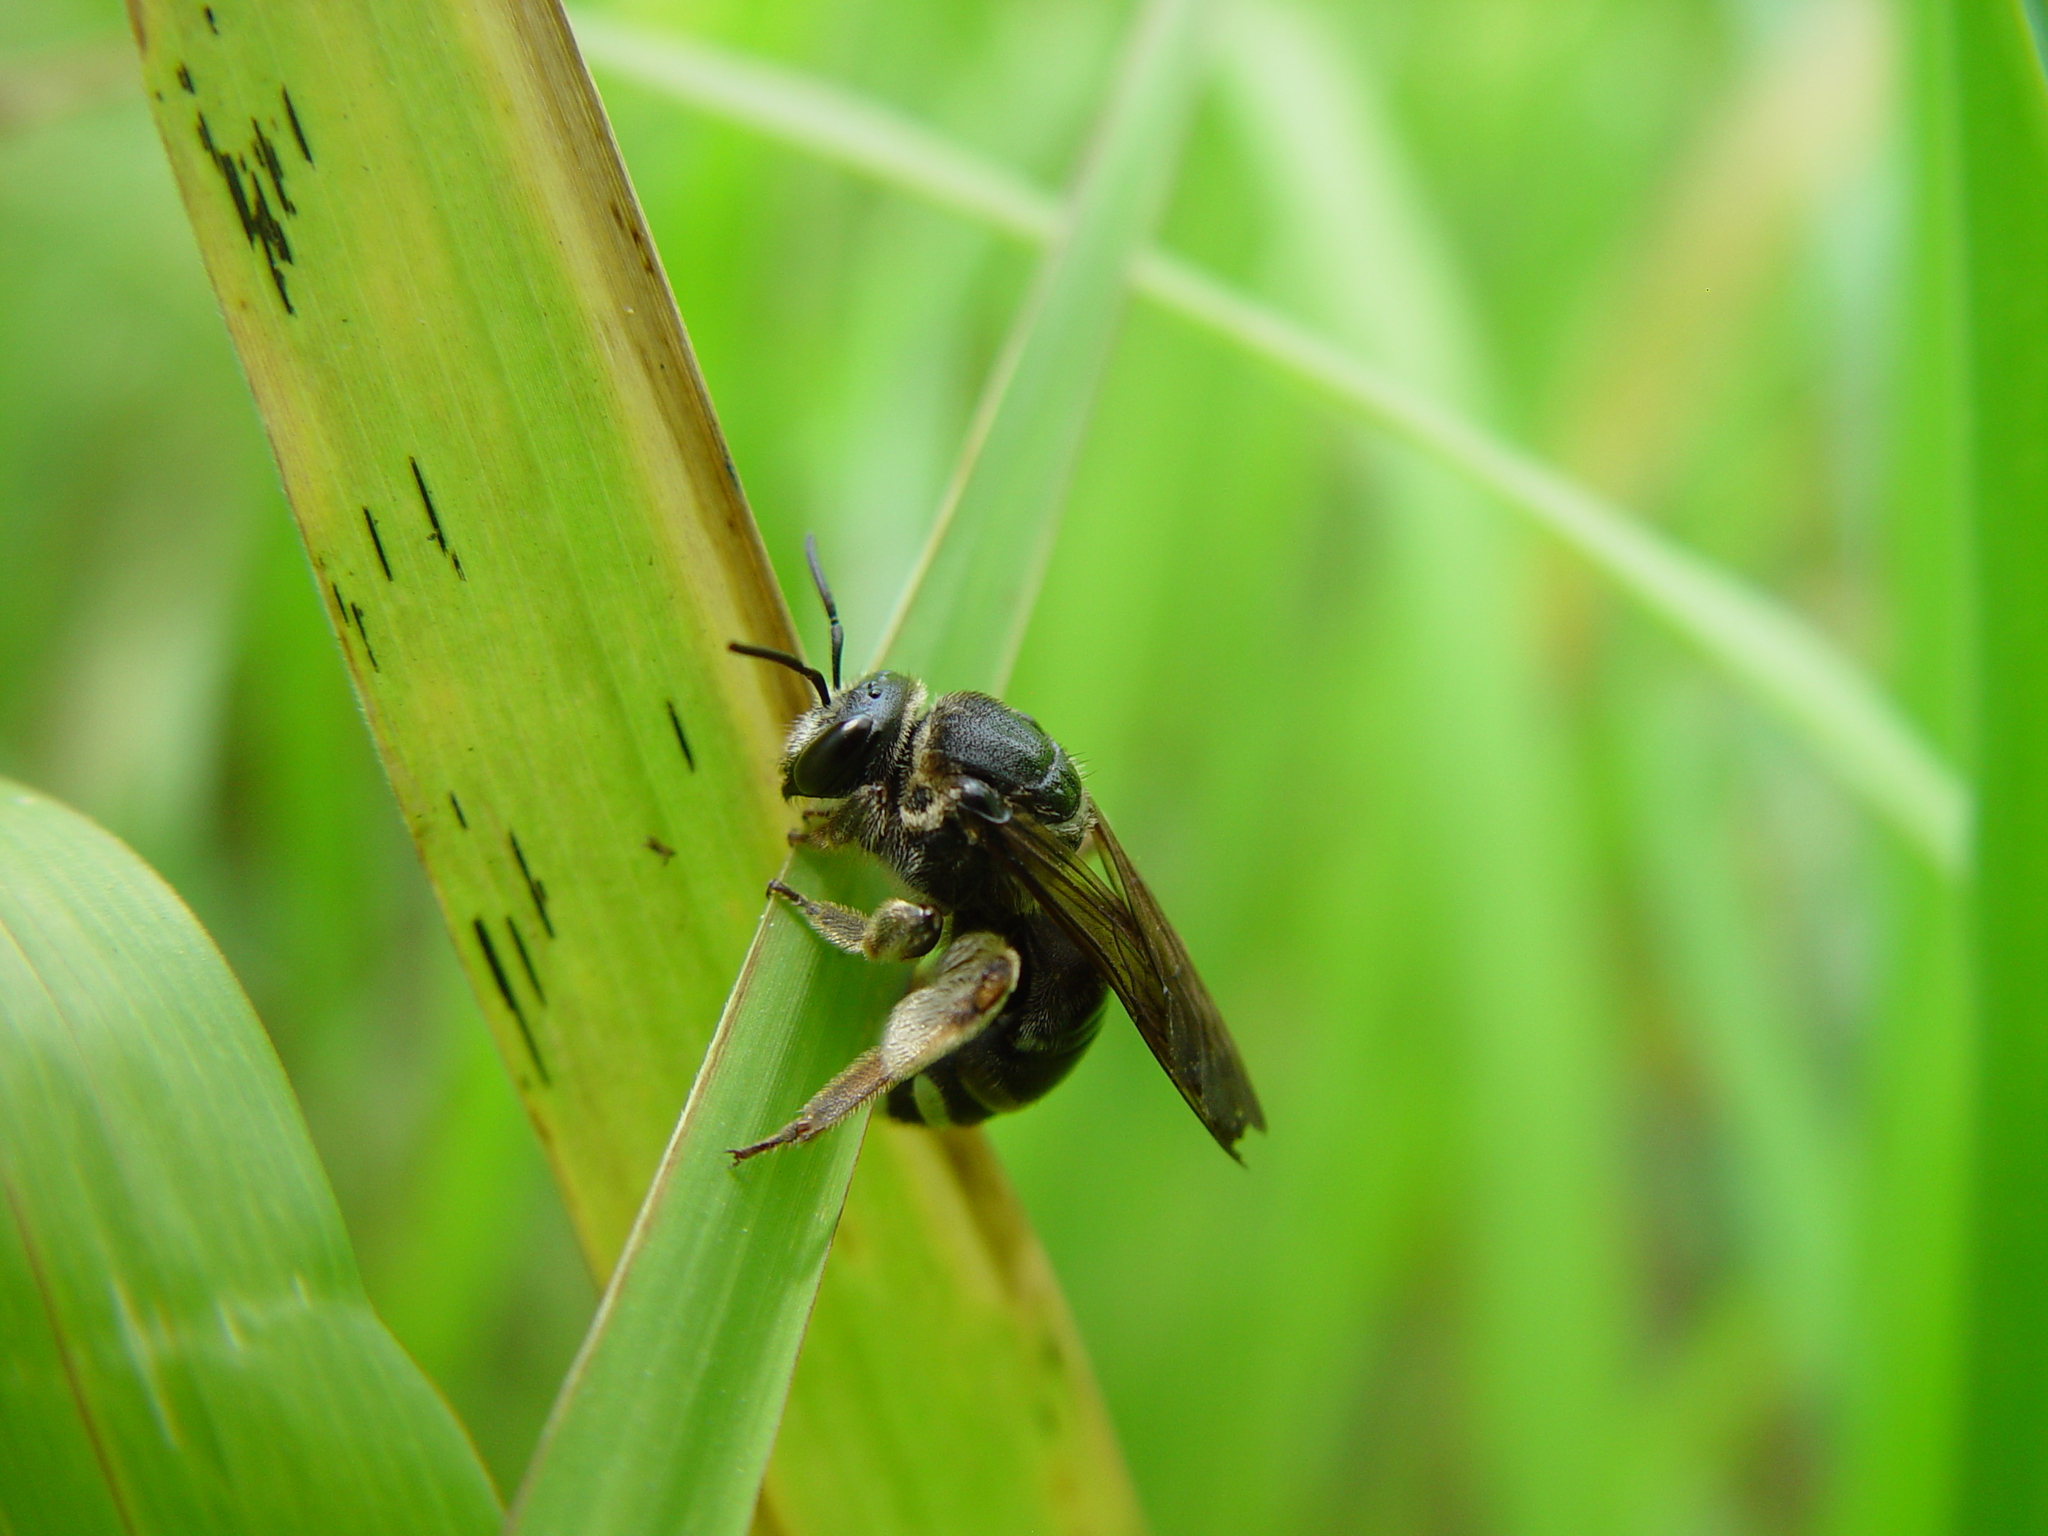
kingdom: Animalia
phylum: Arthropoda
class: Insecta
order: Hymenoptera
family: Halictidae
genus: Nomia
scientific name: Nomia nortoni
